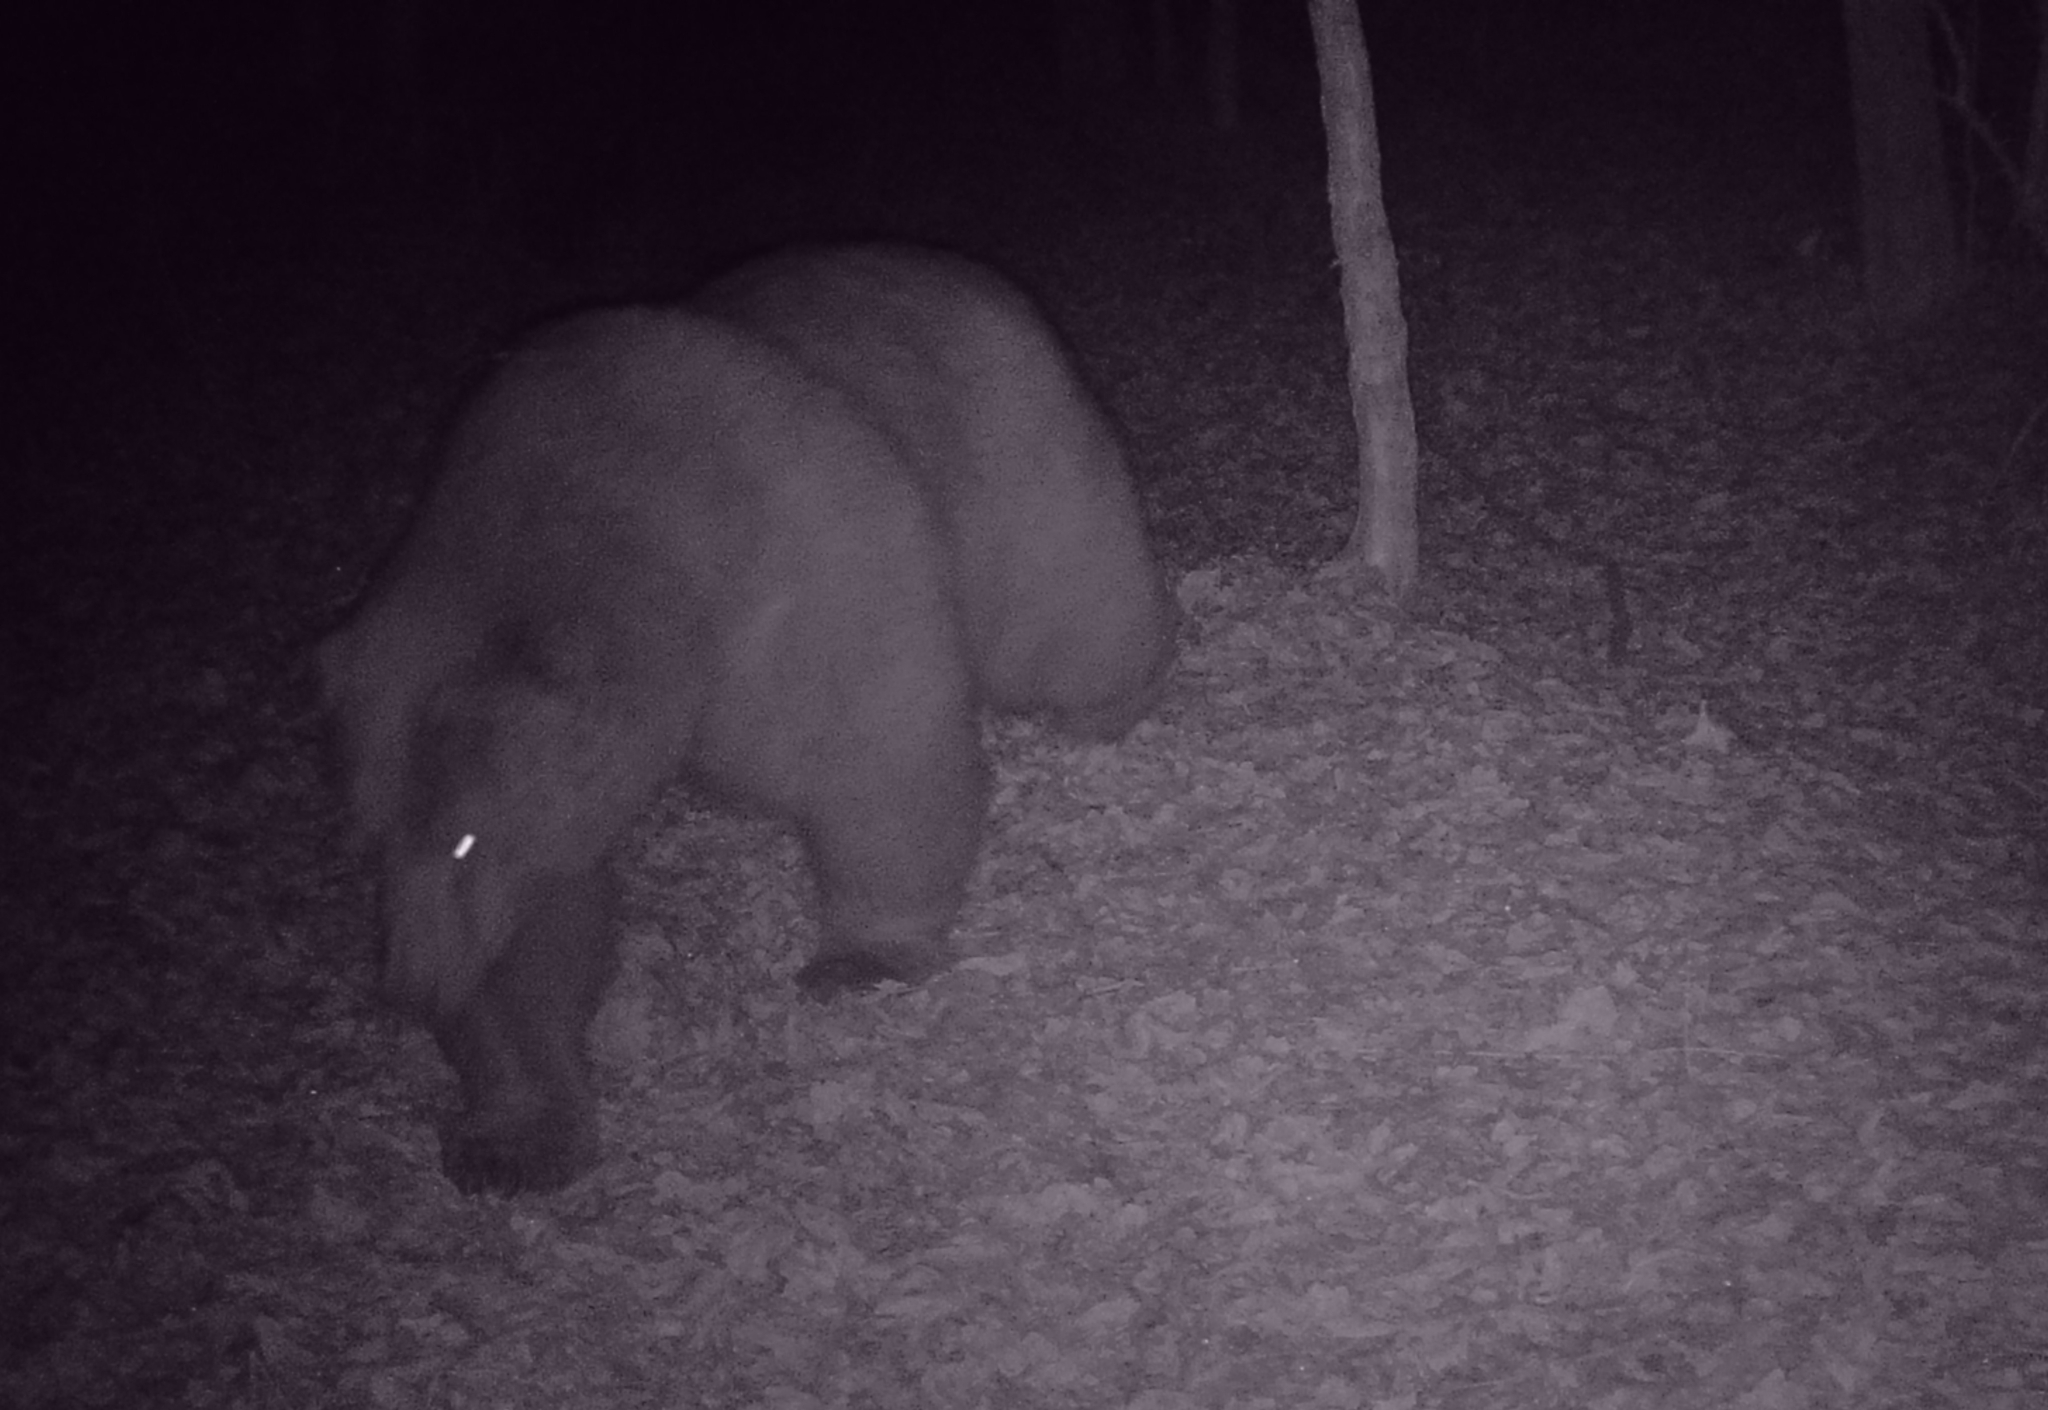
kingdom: Animalia
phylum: Chordata
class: Mammalia
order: Carnivora
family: Ursidae
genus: Ursus
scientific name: Ursus arctos
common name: Brown bear
